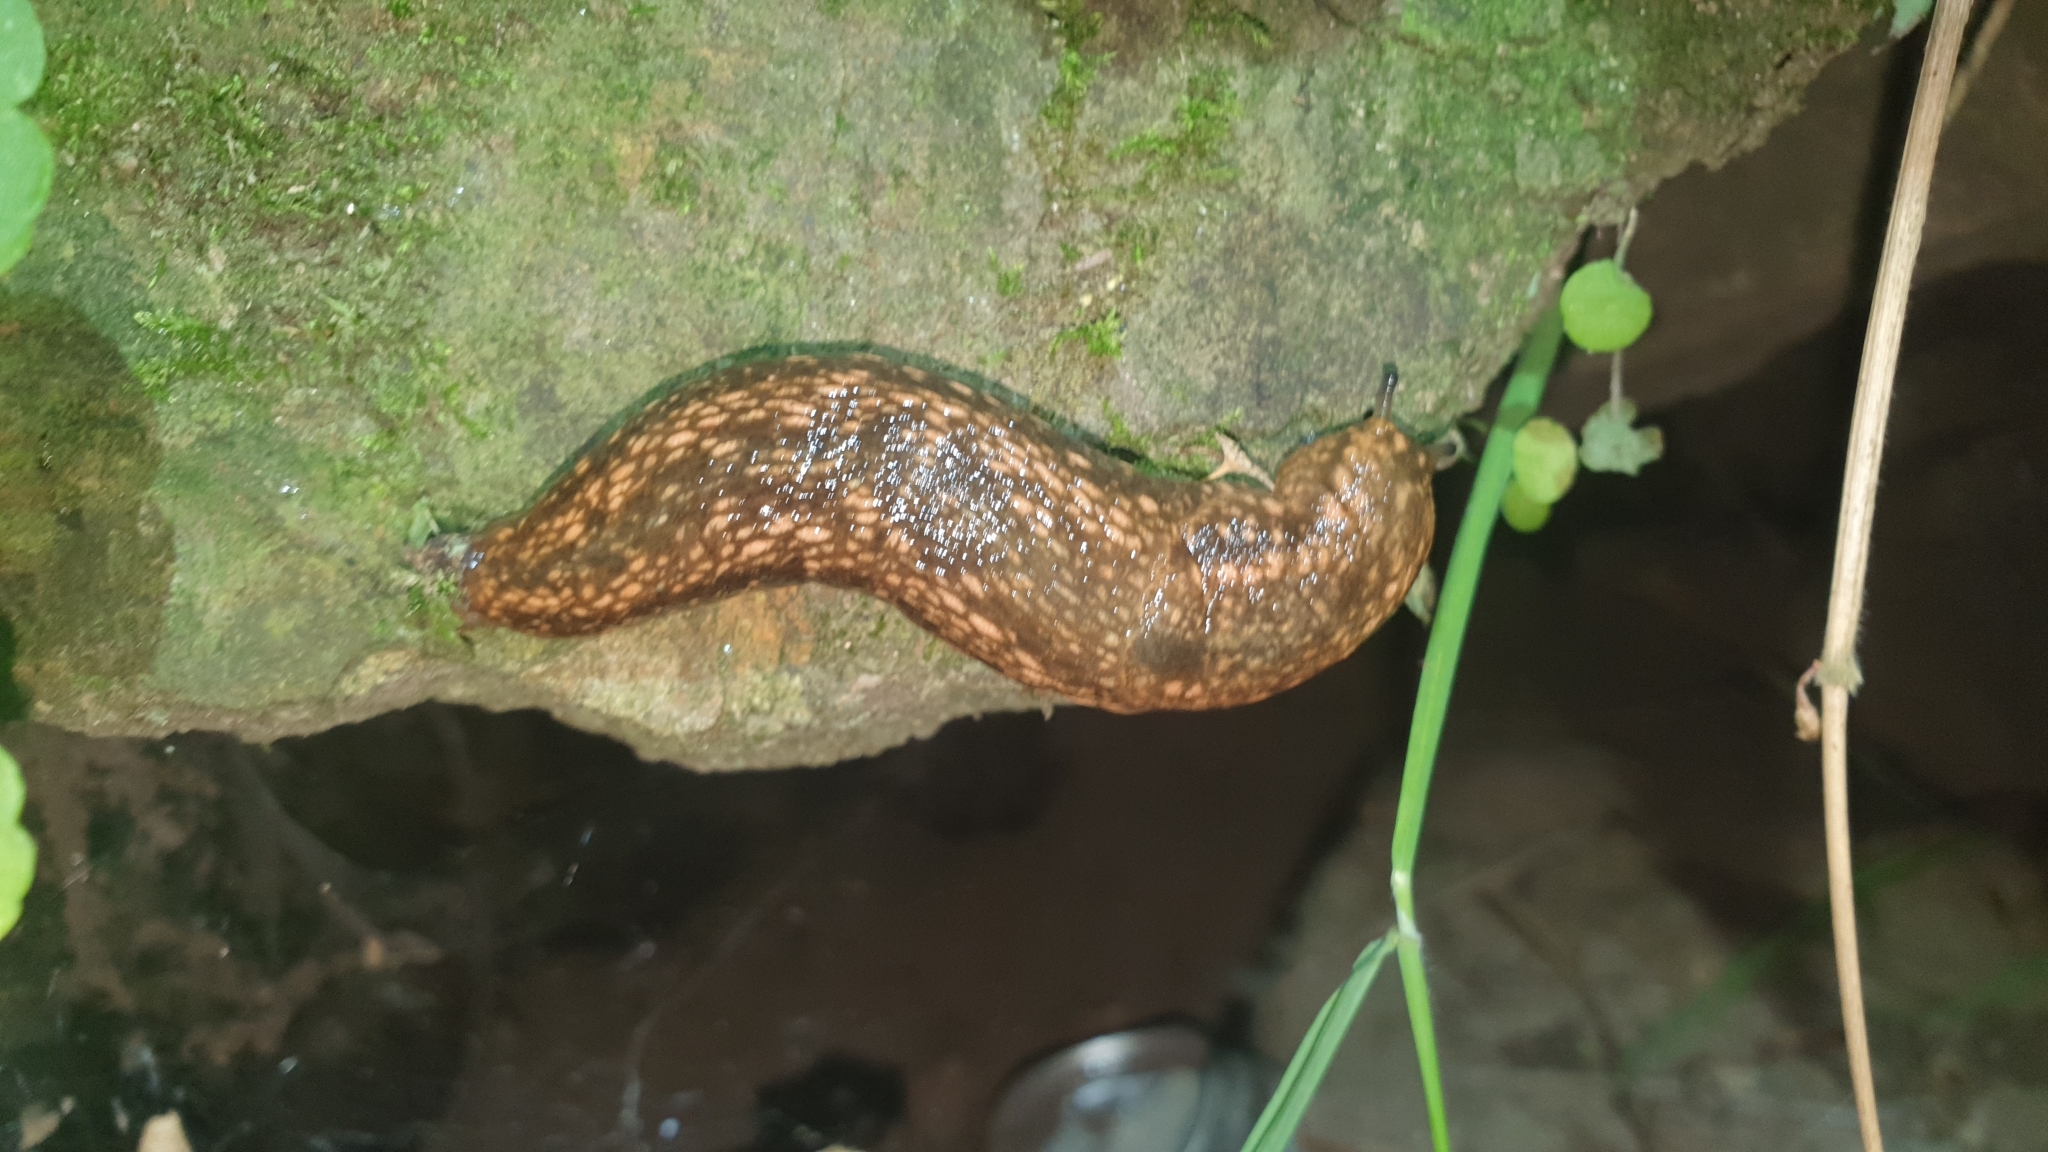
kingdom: Animalia
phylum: Mollusca
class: Gastropoda
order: Stylommatophora
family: Arionidae
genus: Geomalacus
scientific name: Geomalacus maculosus
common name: Kerry slug
